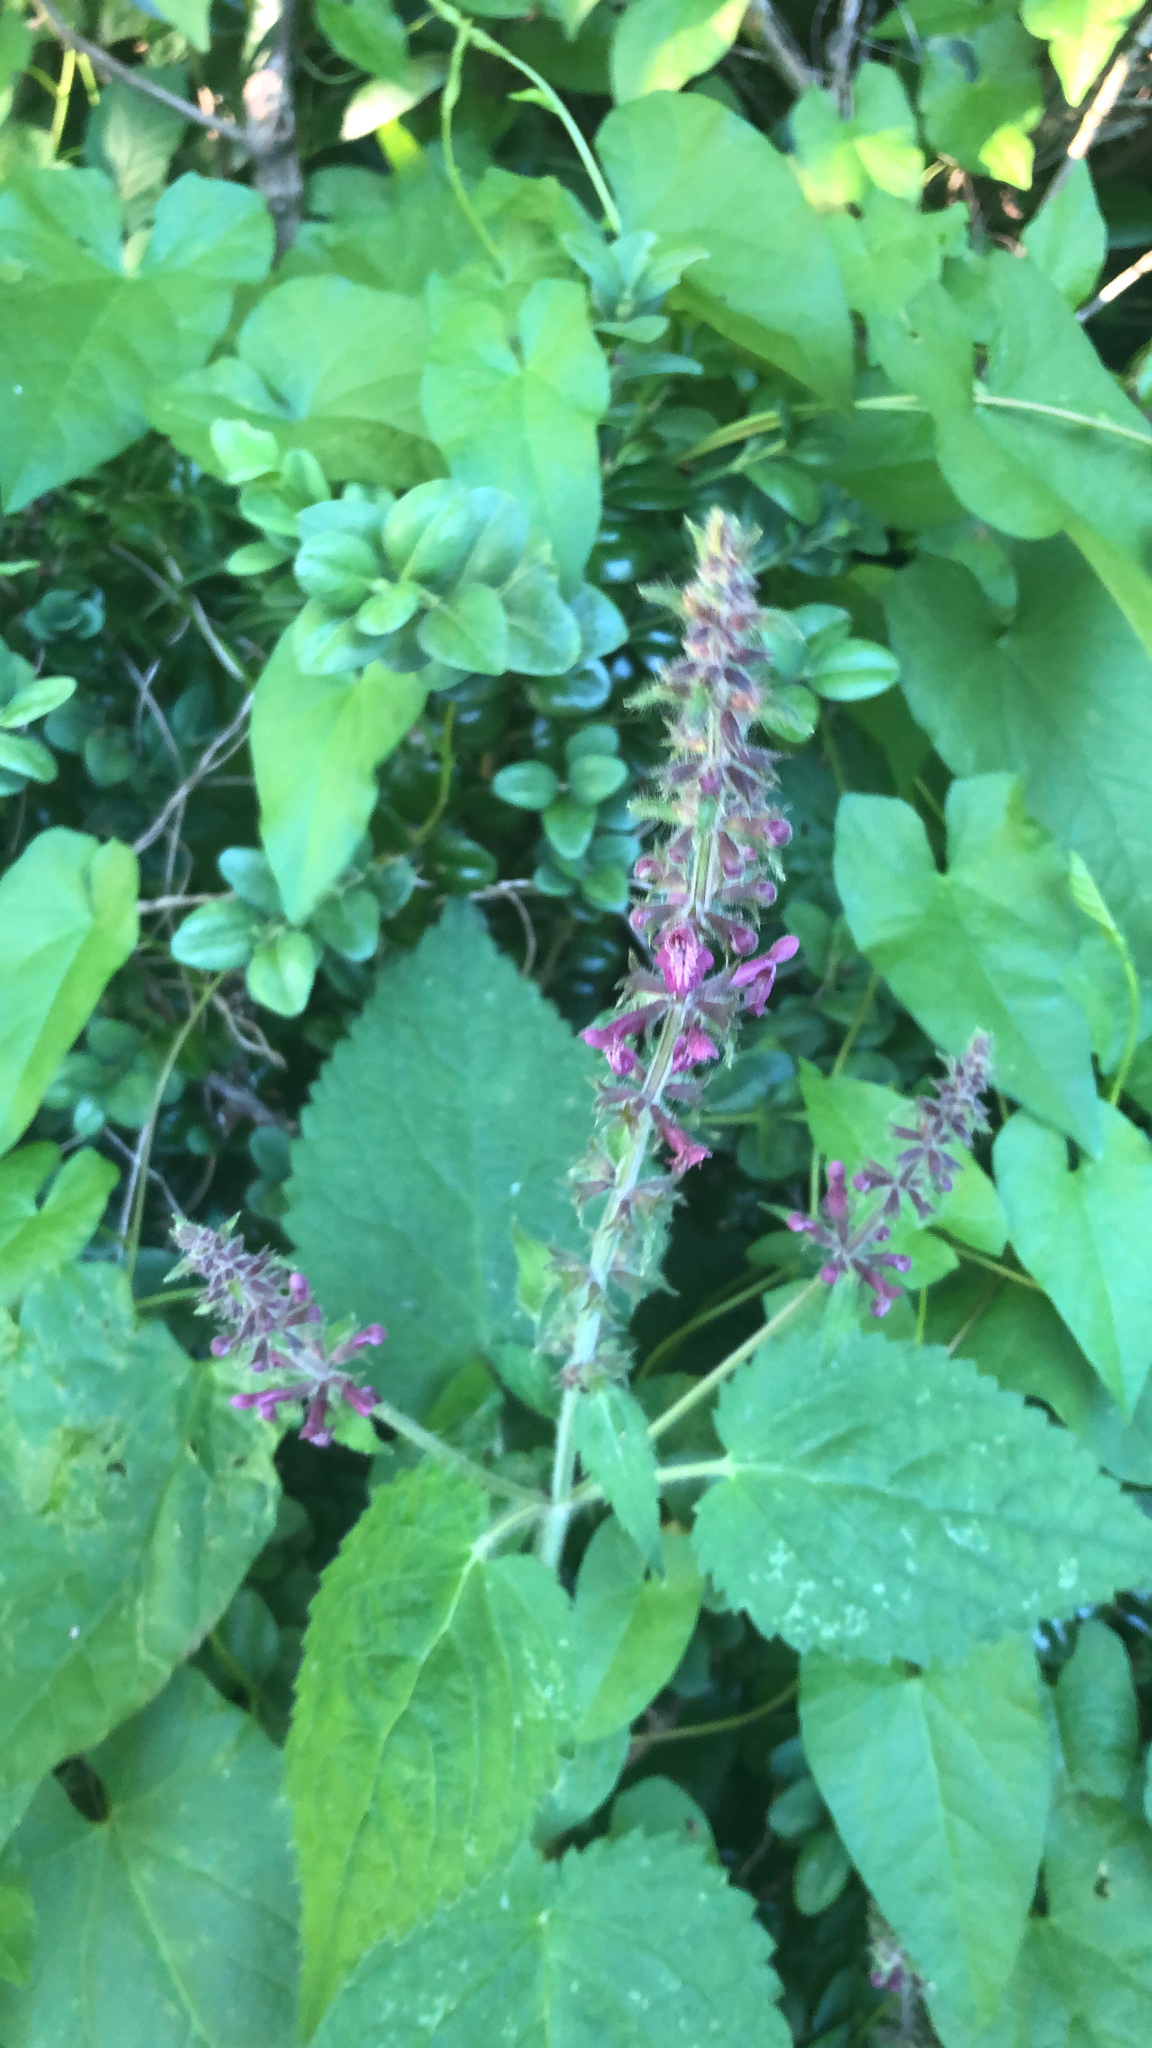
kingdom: Plantae
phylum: Tracheophyta
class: Magnoliopsida
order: Lamiales
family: Lamiaceae
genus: Stachys
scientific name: Stachys sylvatica
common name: Hedge woundwort
